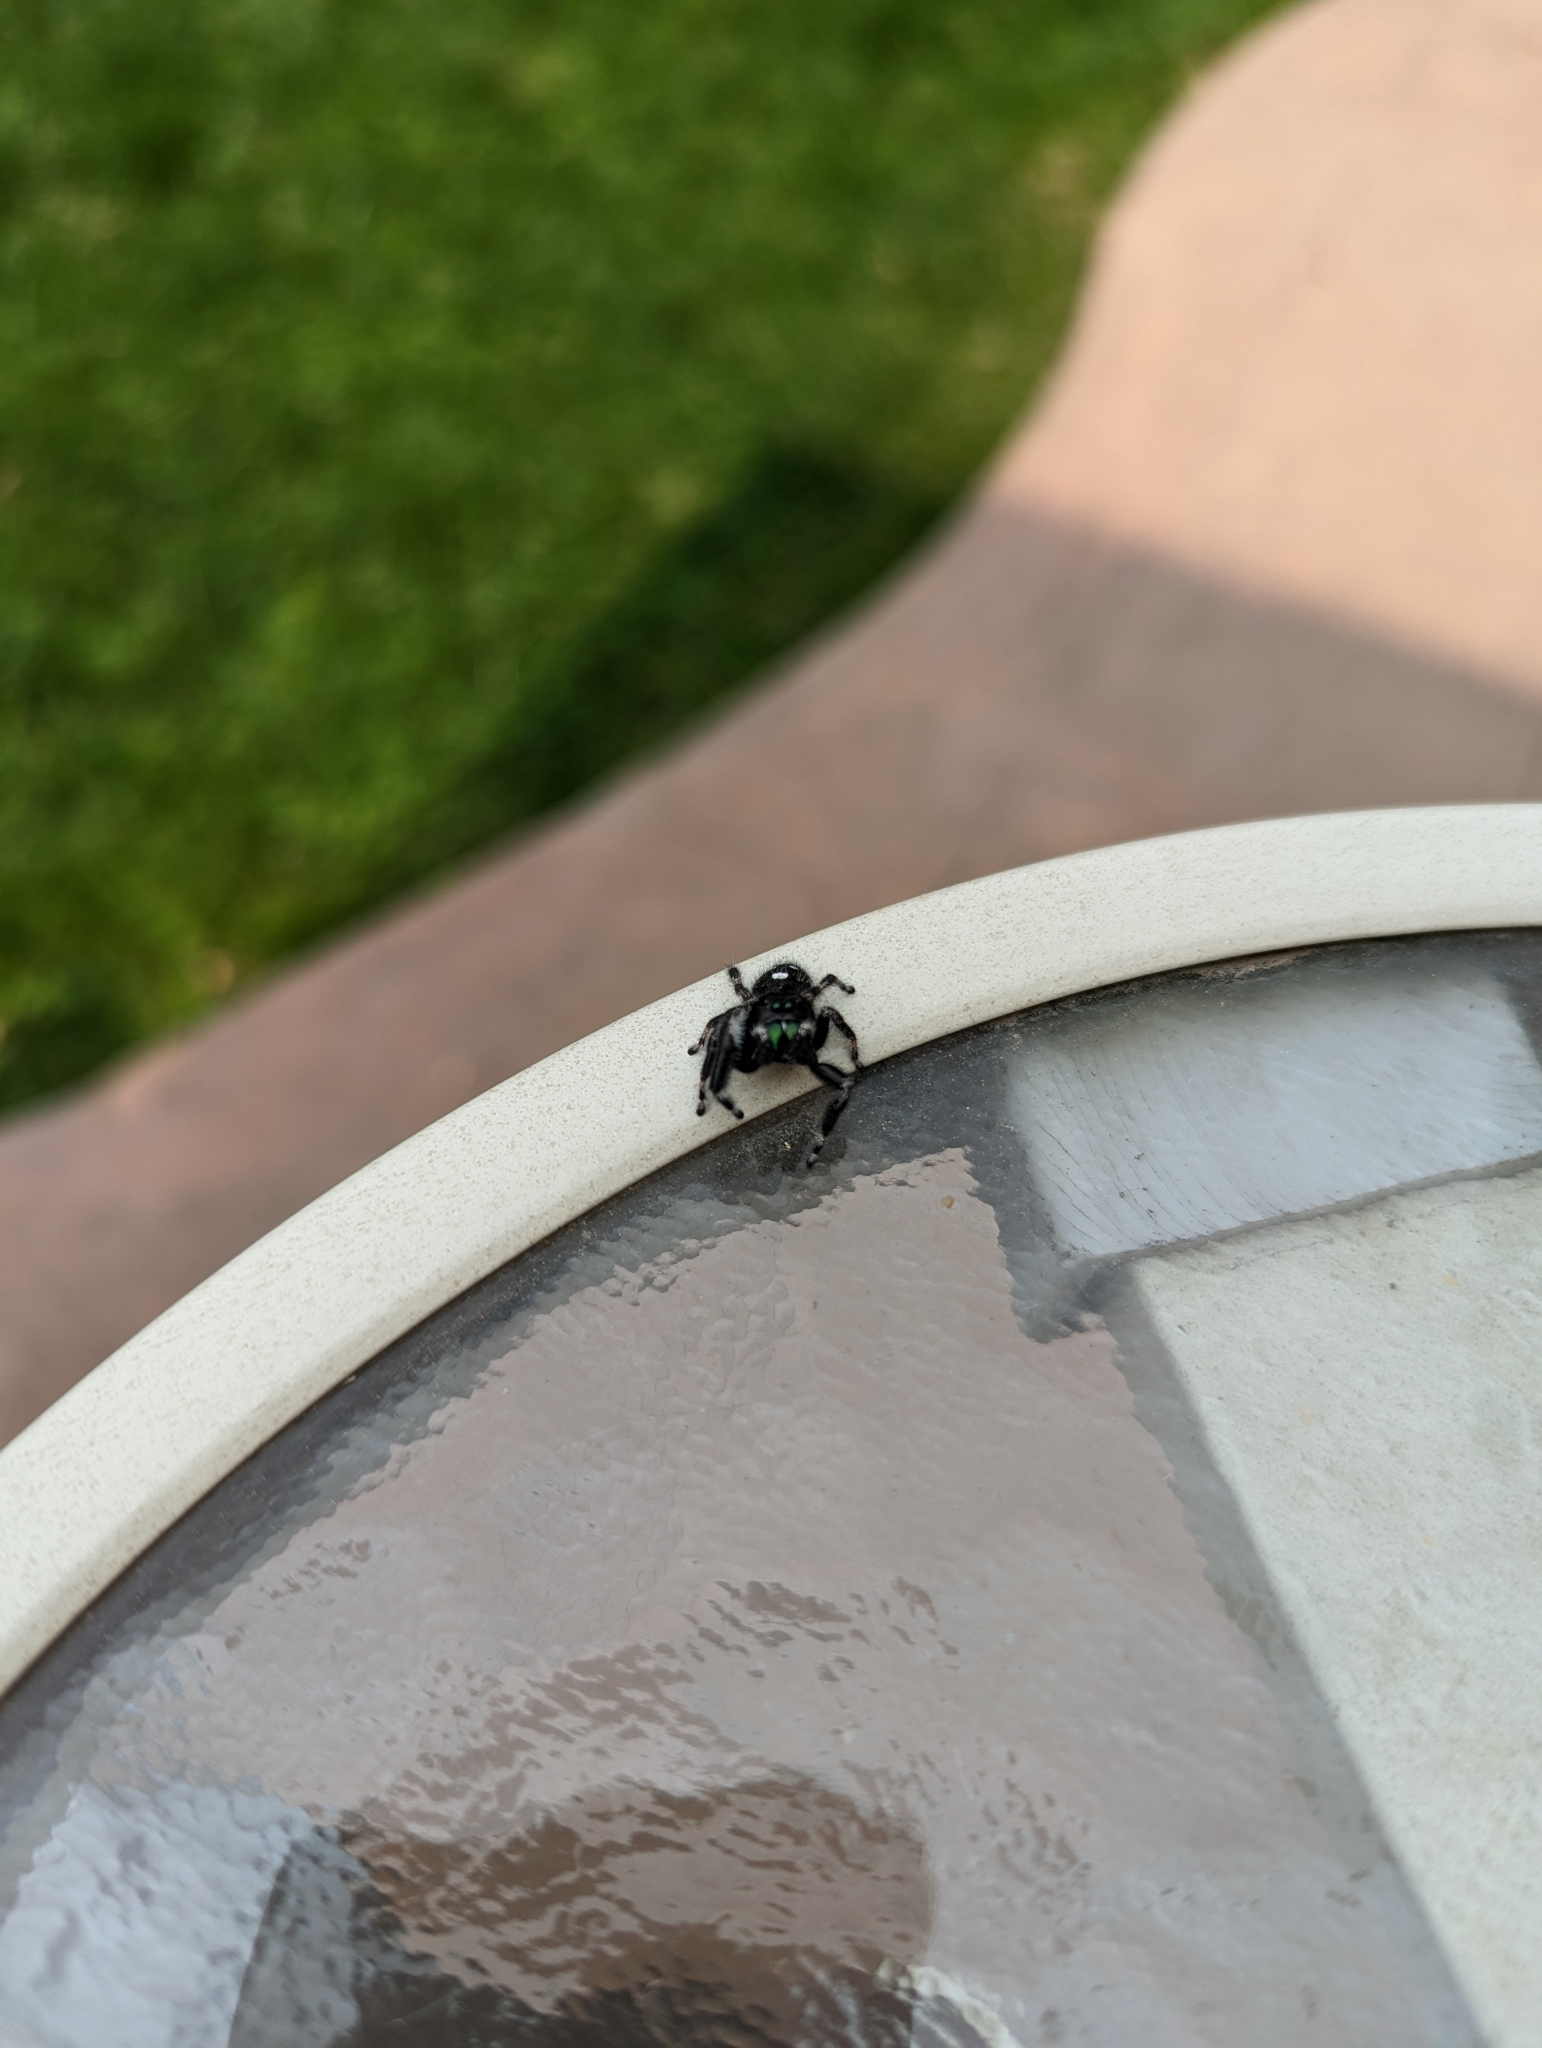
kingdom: Animalia
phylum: Arthropoda
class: Arachnida
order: Araneae
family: Salticidae
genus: Phidippus
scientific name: Phidippus audax
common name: Bold jumper
